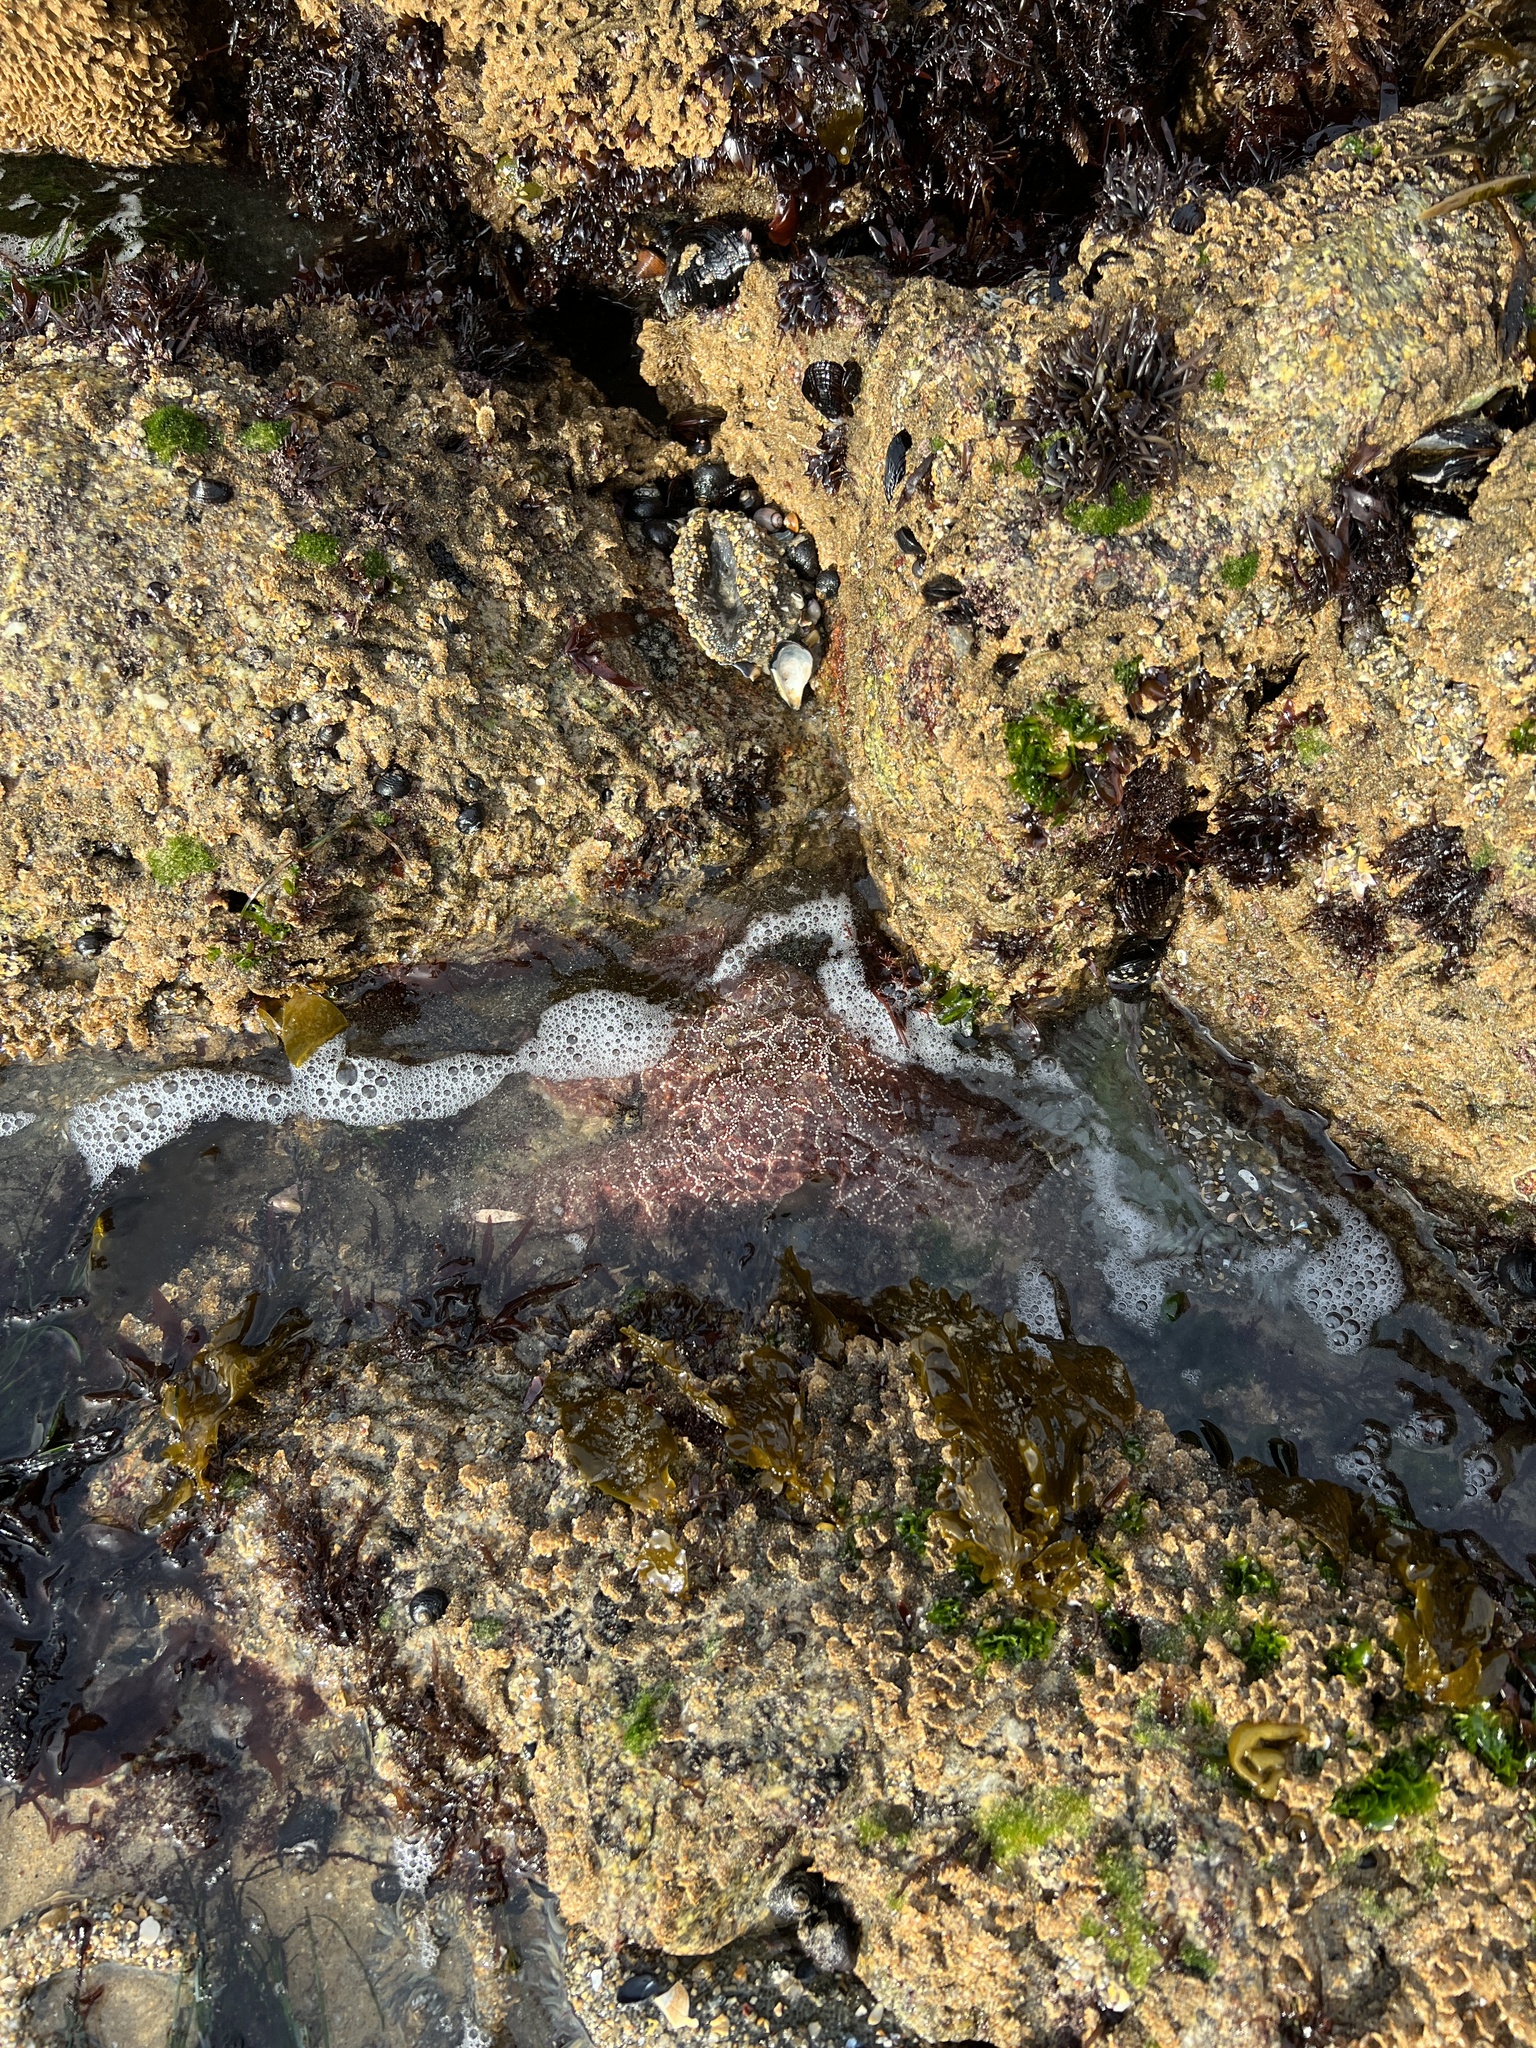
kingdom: Animalia
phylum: Echinodermata
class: Asteroidea
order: Forcipulatida
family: Asteriidae
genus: Pisaster
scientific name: Pisaster ochraceus
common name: Ochre stars
